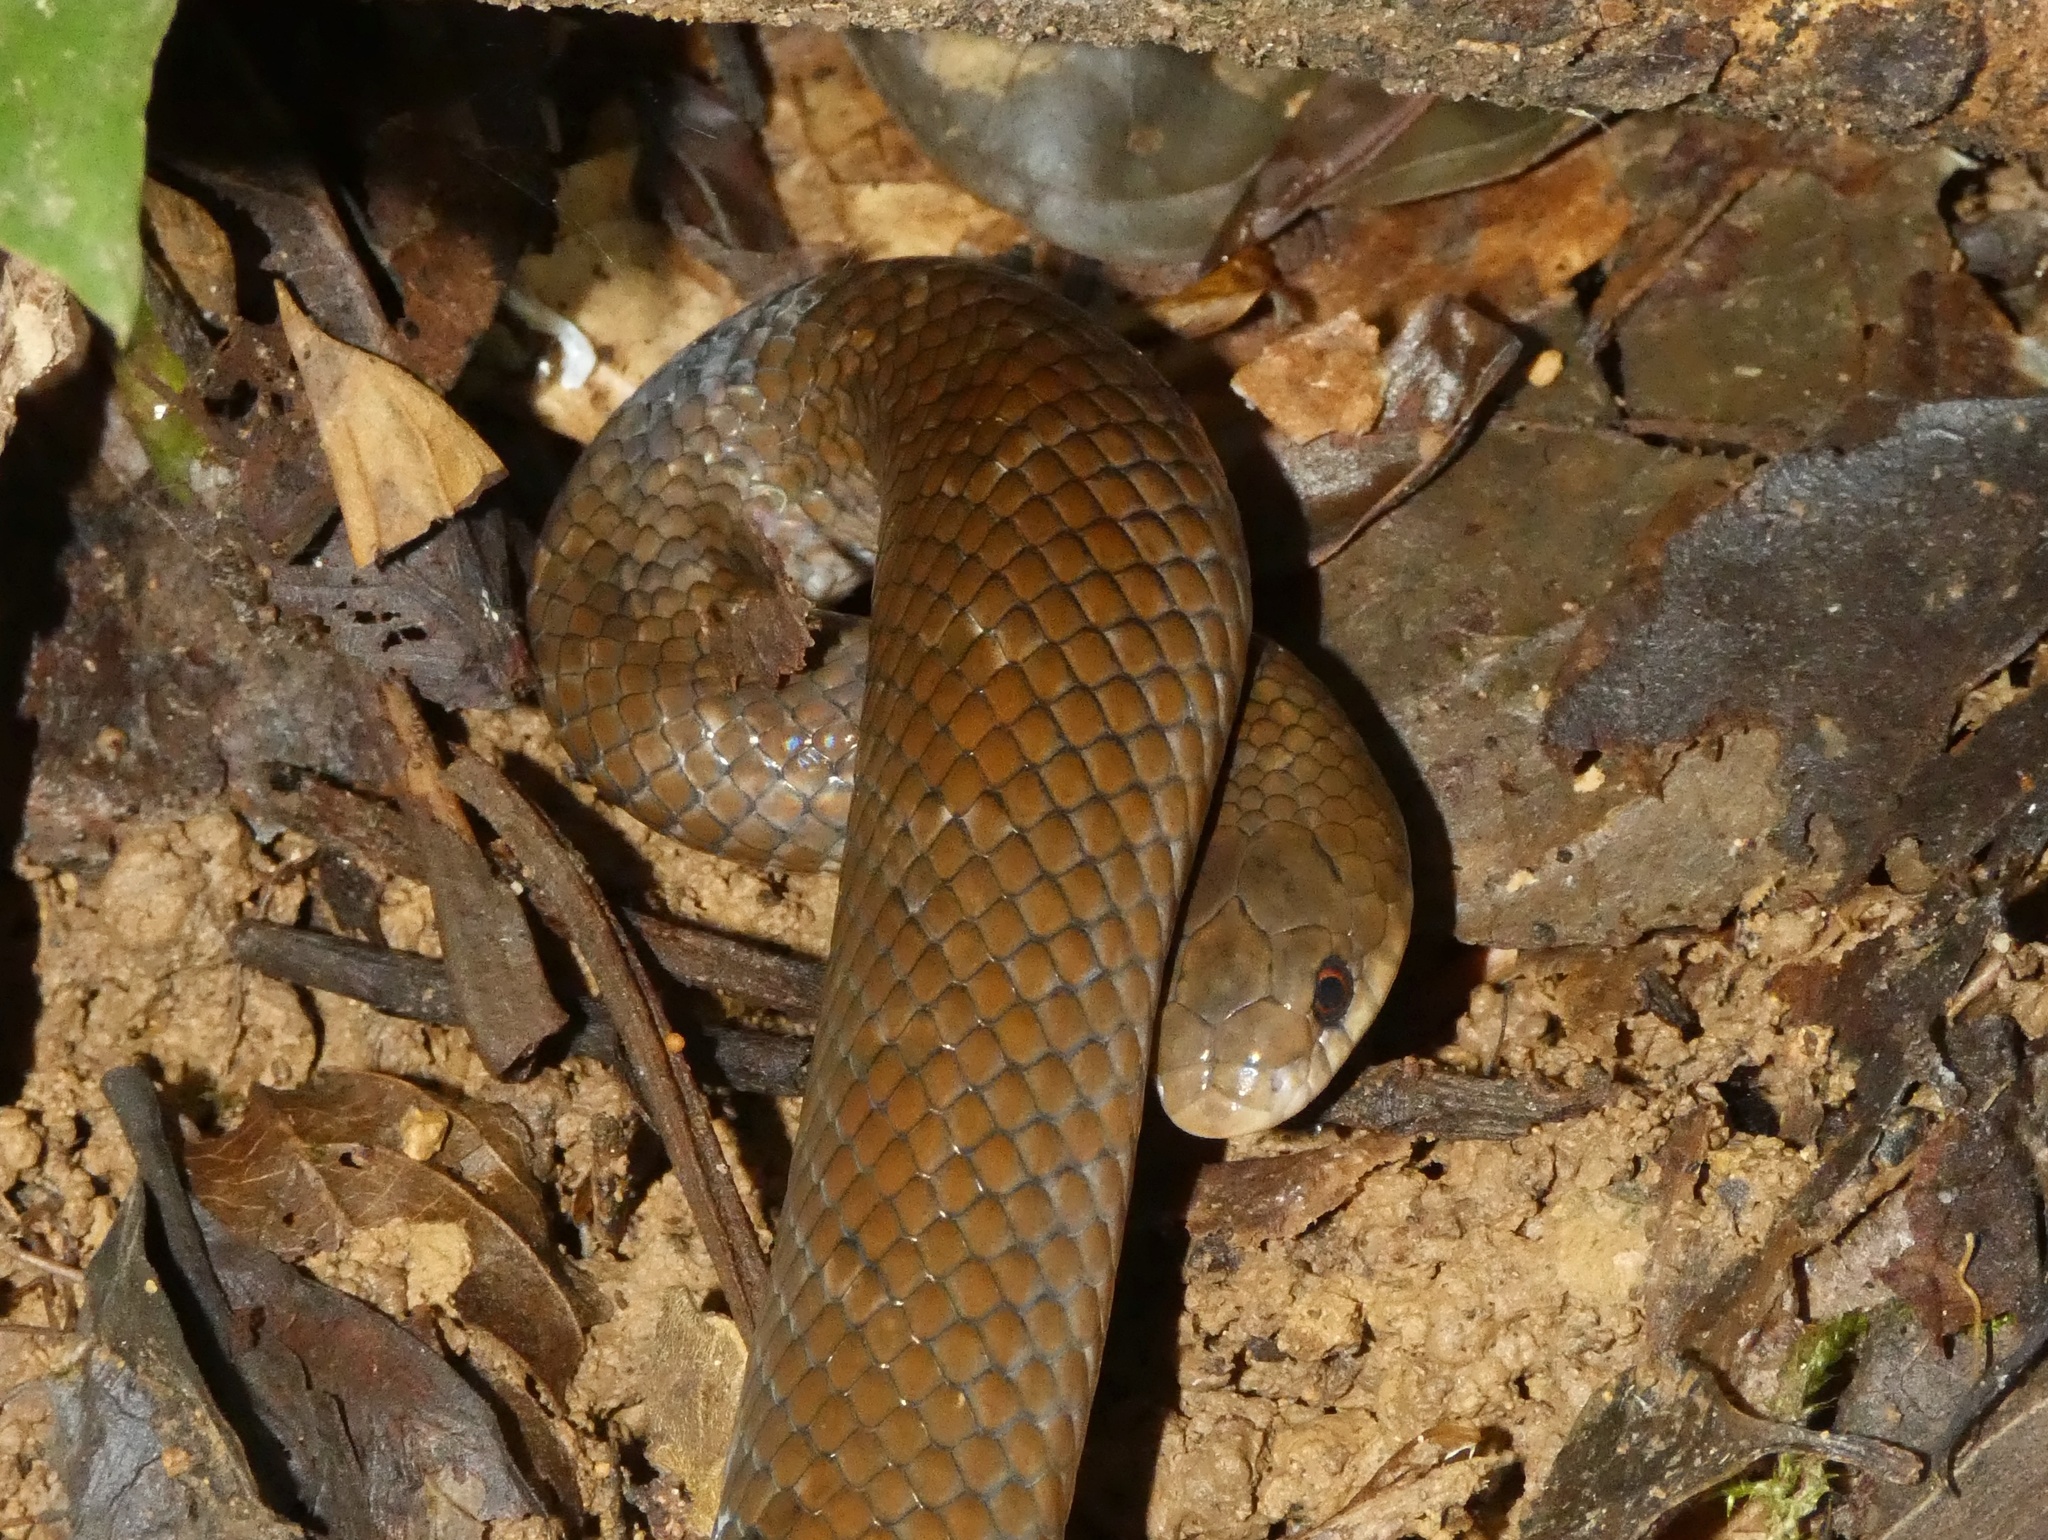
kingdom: Animalia
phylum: Chordata
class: Squamata
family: Colubridae
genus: Stenorrhina
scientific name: Stenorrhina degenhardtii
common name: Degenhardt's scorpion-eating snake
